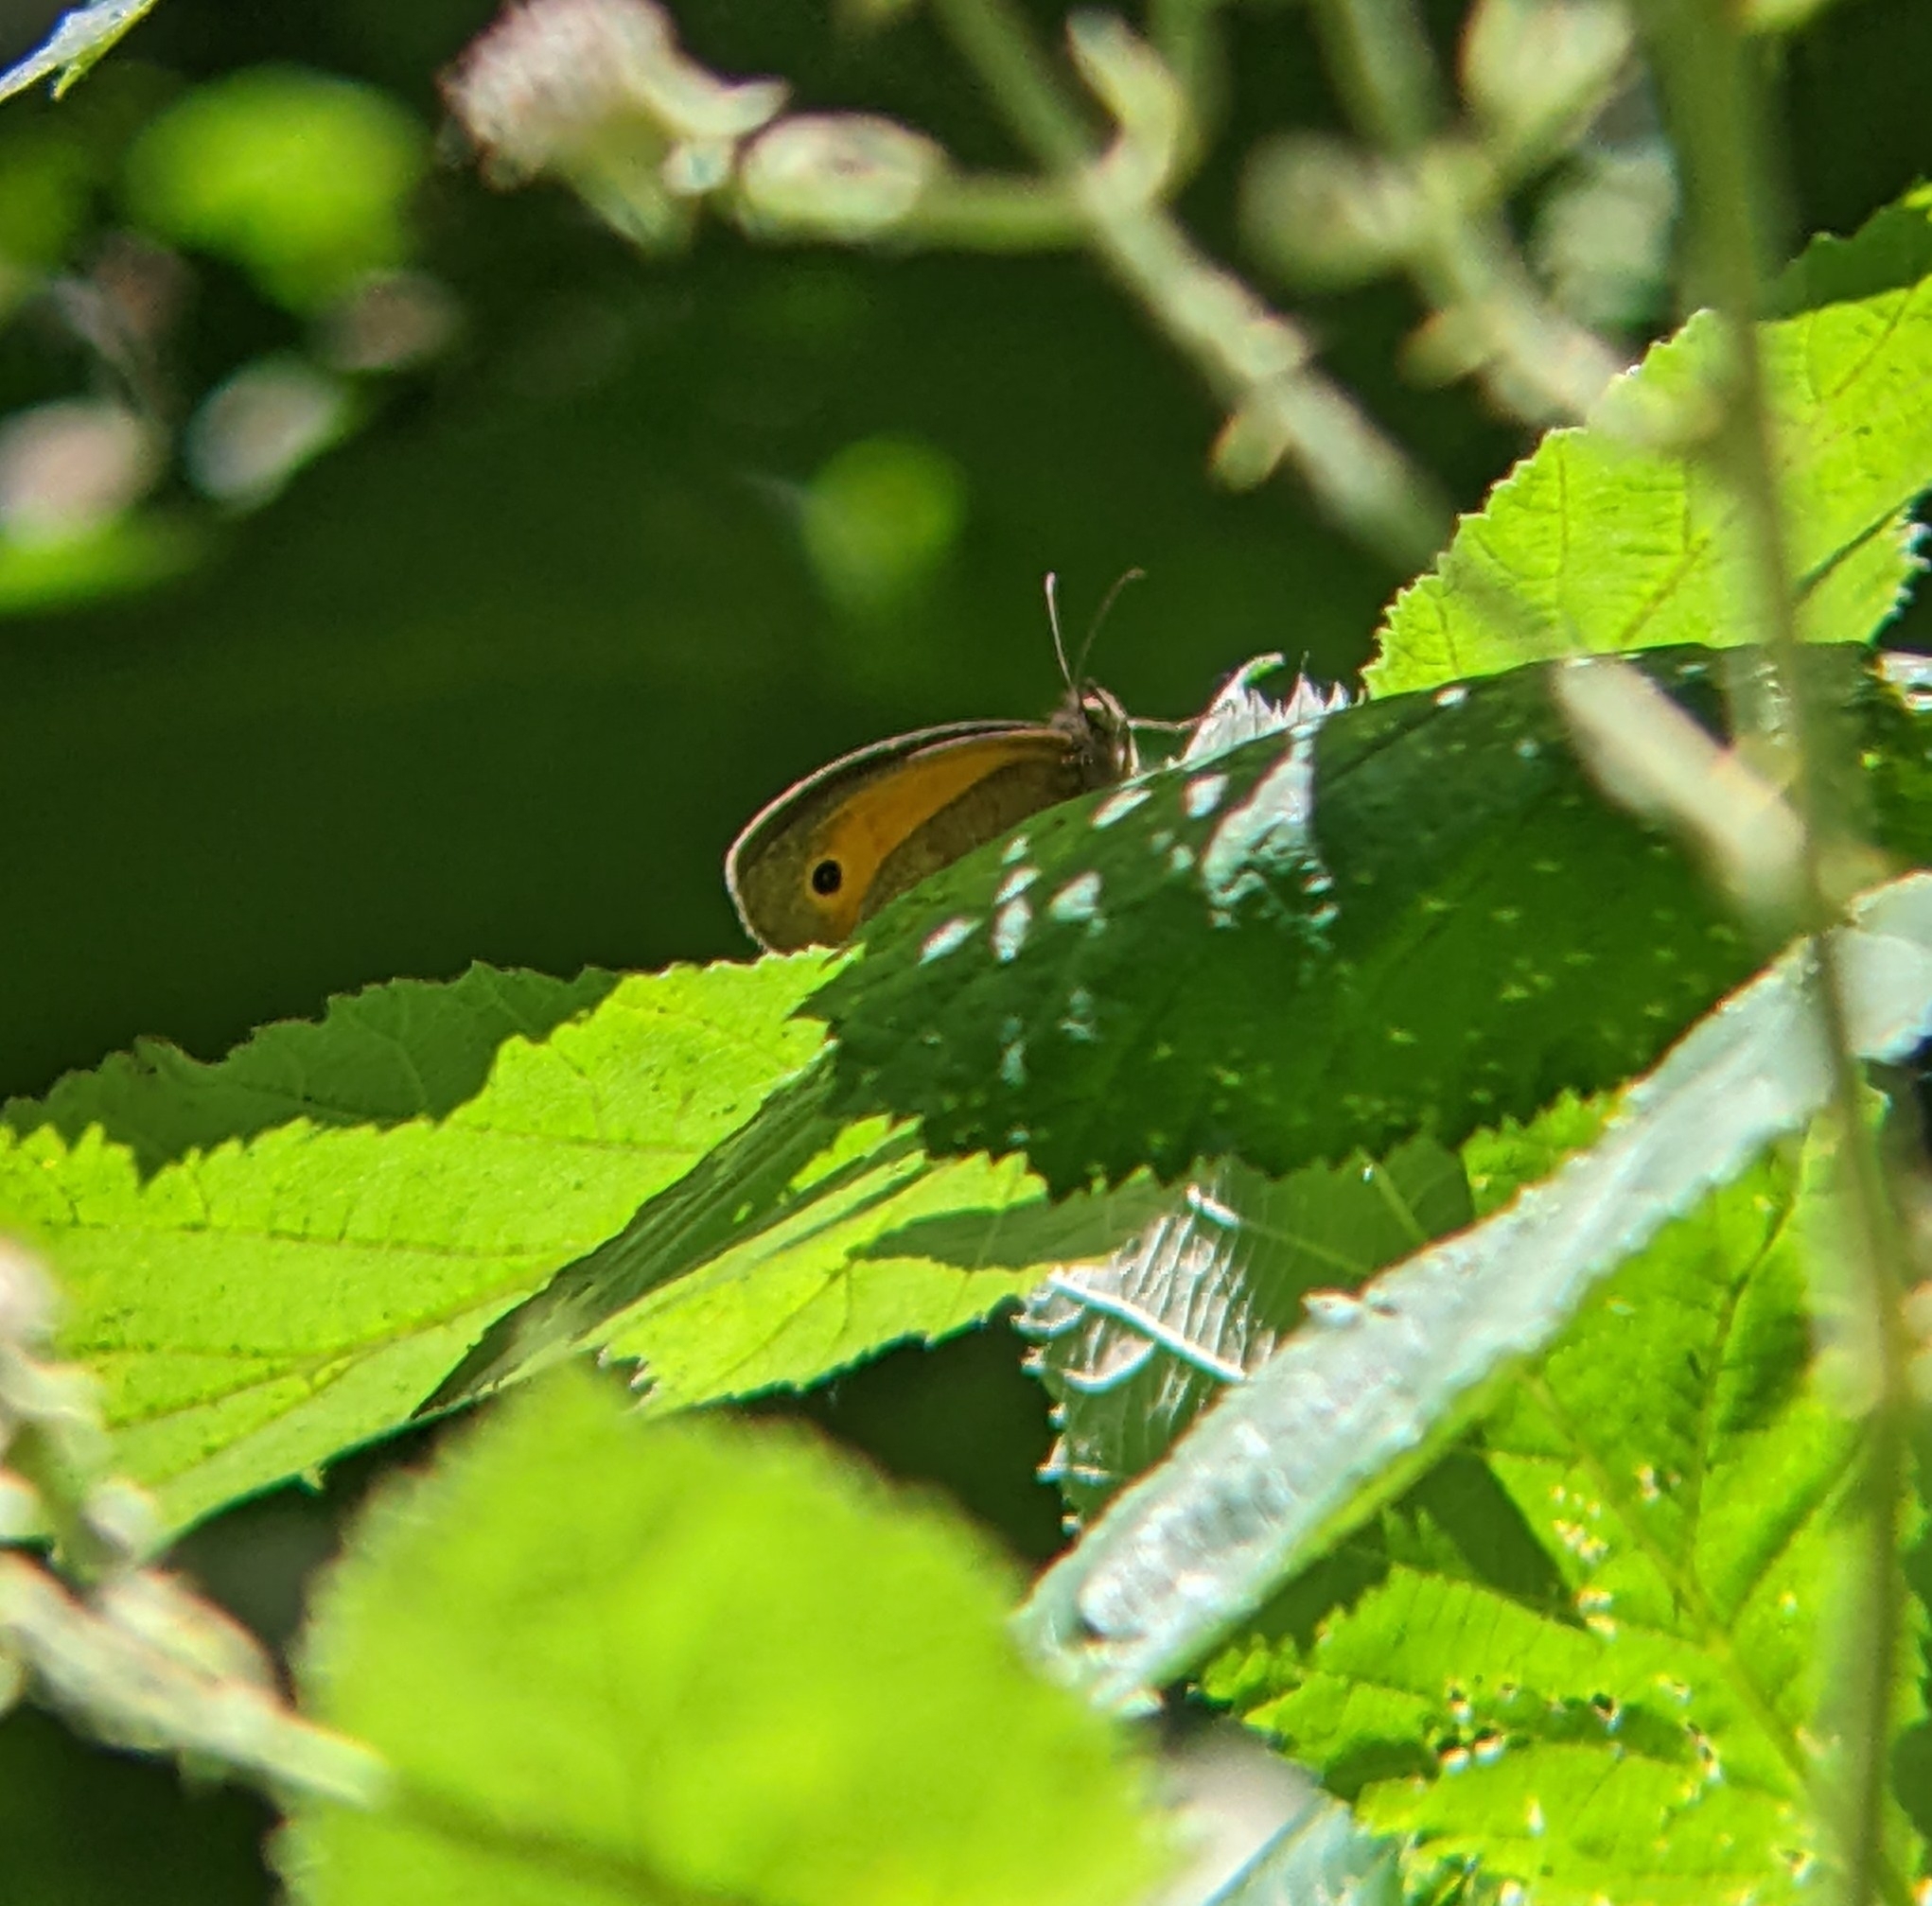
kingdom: Animalia
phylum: Arthropoda
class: Insecta
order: Lepidoptera
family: Nymphalidae
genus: Maniola
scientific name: Maniola jurtina
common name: Meadow brown
